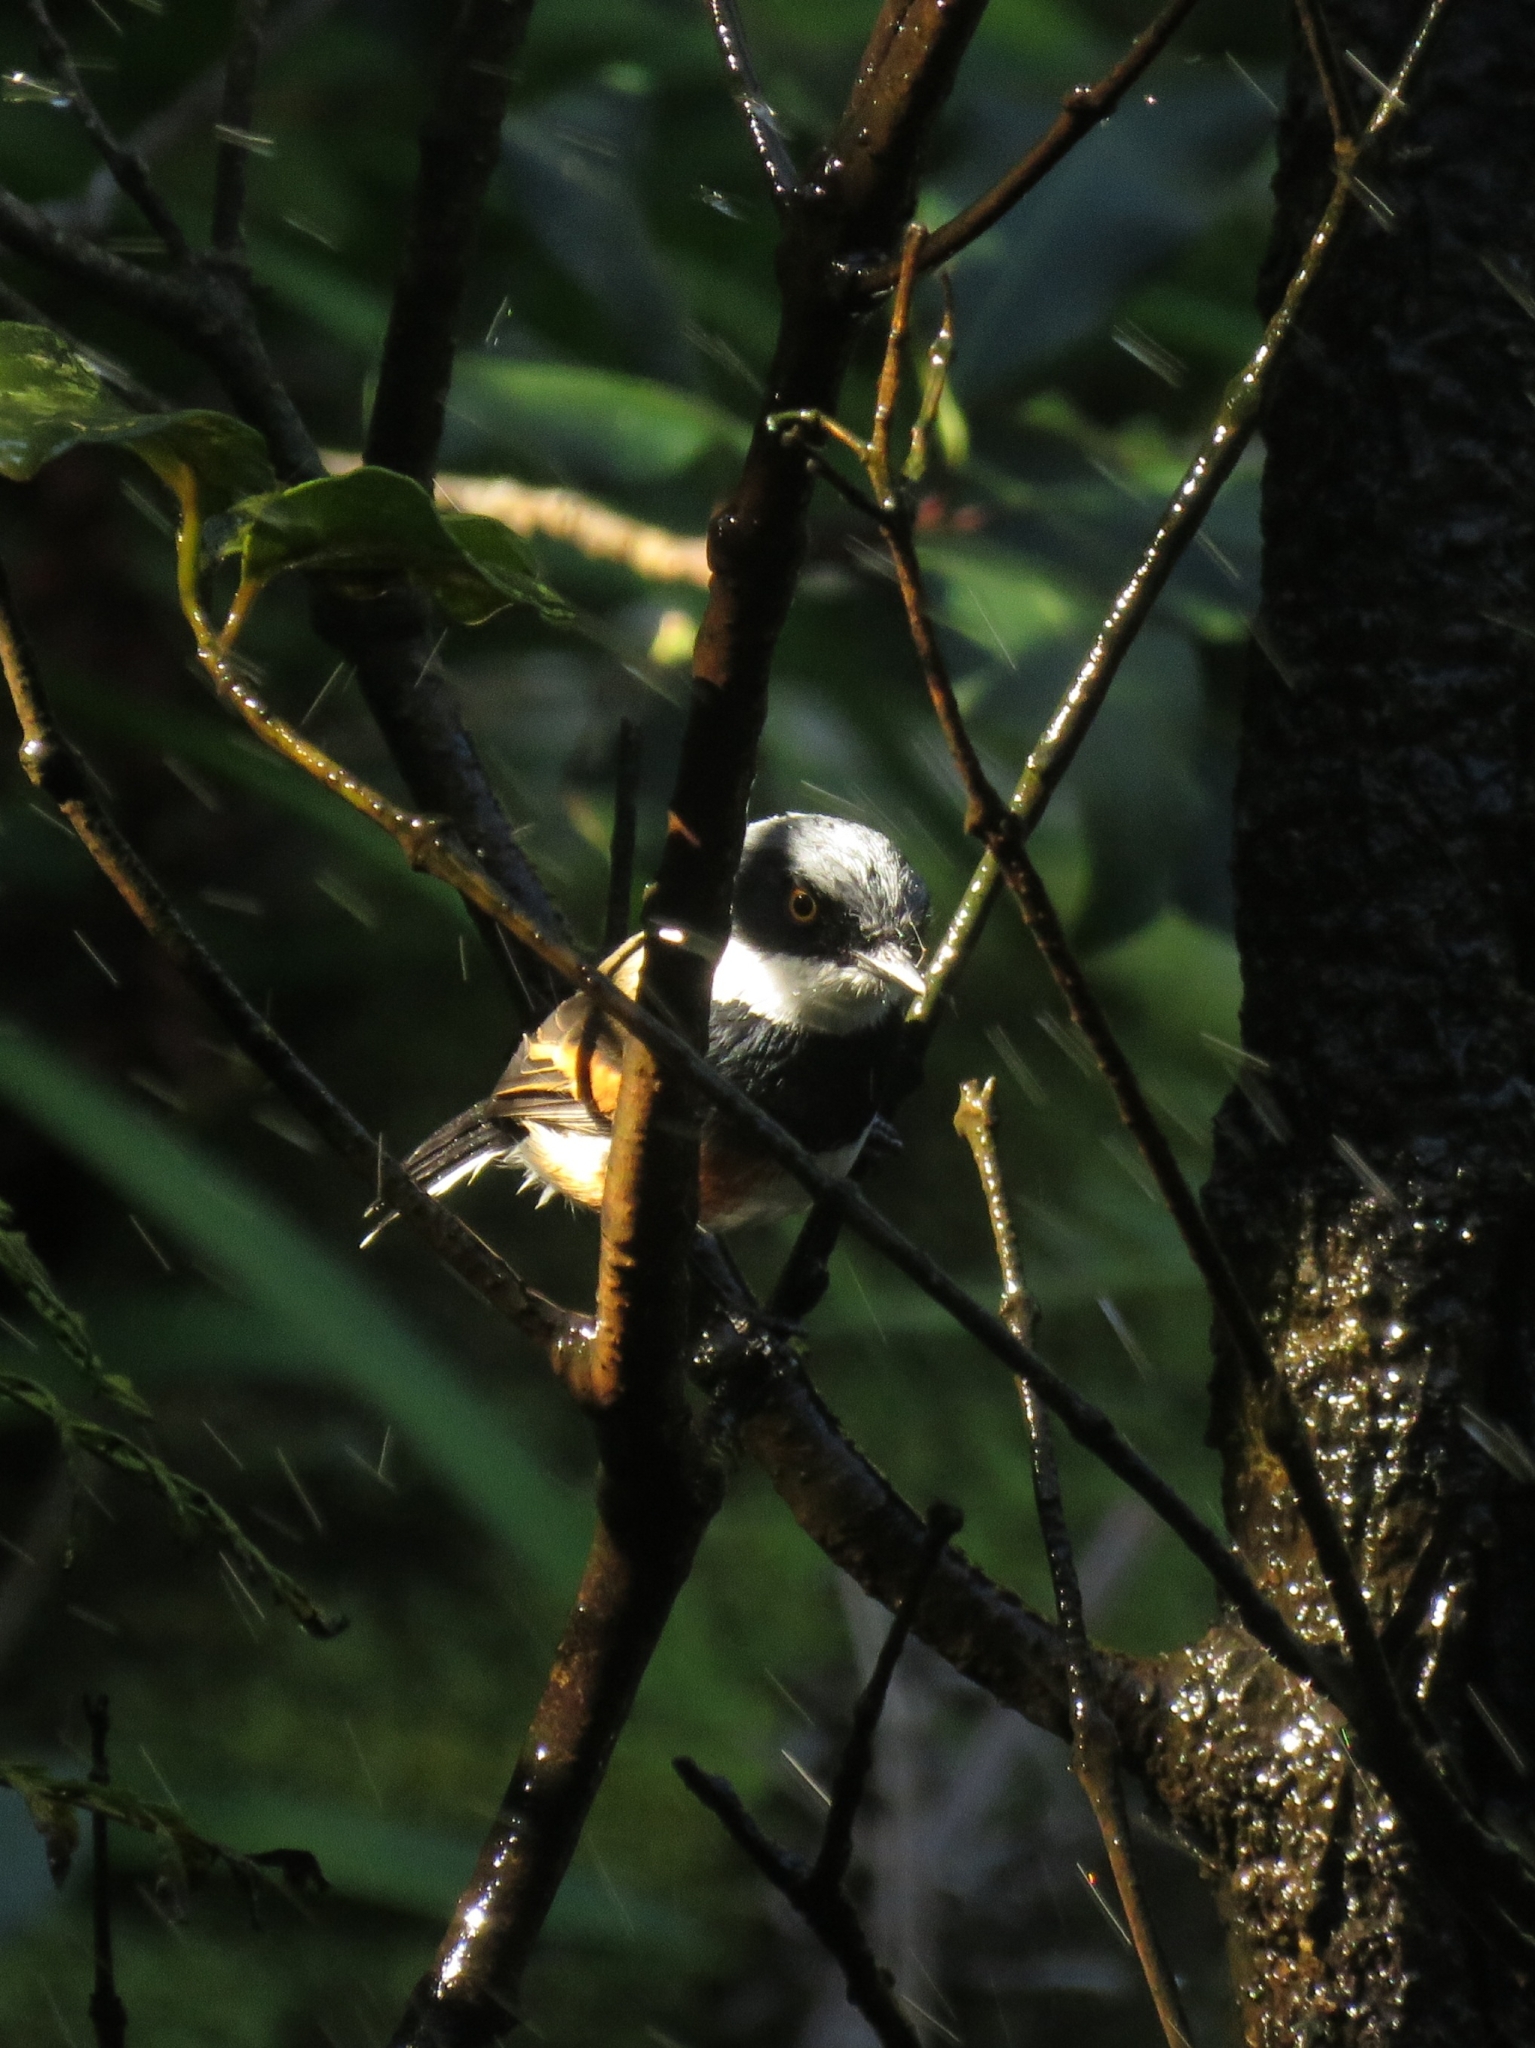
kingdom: Animalia
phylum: Chordata
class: Aves
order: Passeriformes
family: Platysteiridae
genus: Batis
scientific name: Batis capensis
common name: Cape batis
